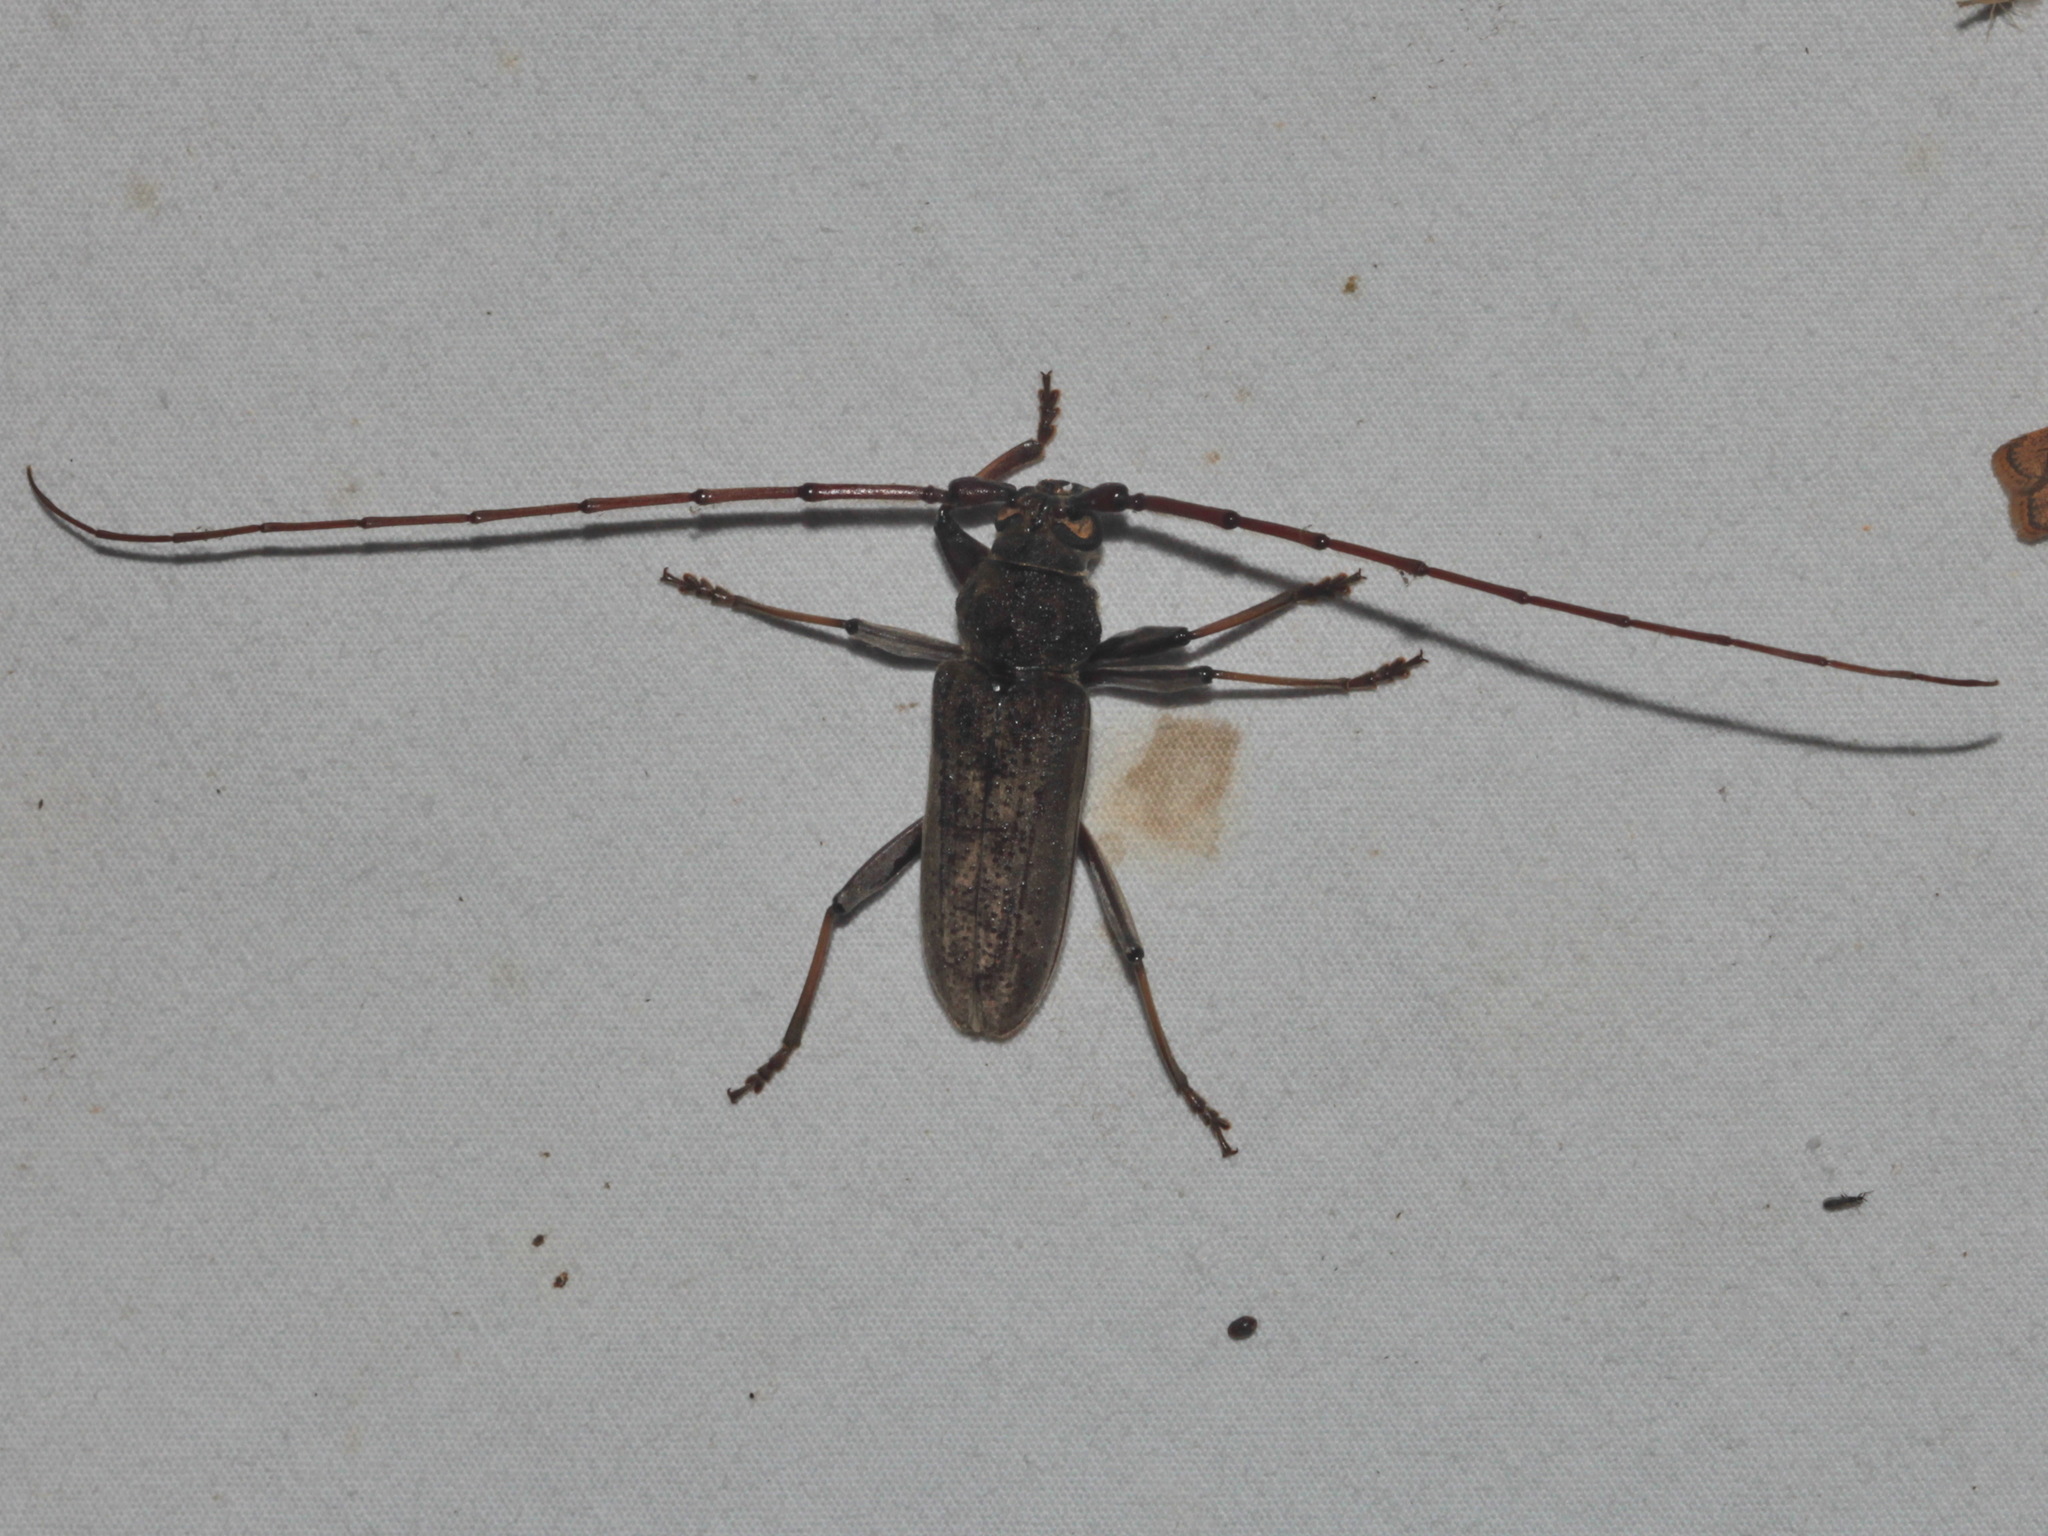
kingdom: Animalia
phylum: Arthropoda
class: Insecta
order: Coleoptera
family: Cerambycidae
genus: Stromatium
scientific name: Stromatium longicorne
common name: Long-horned beetle
